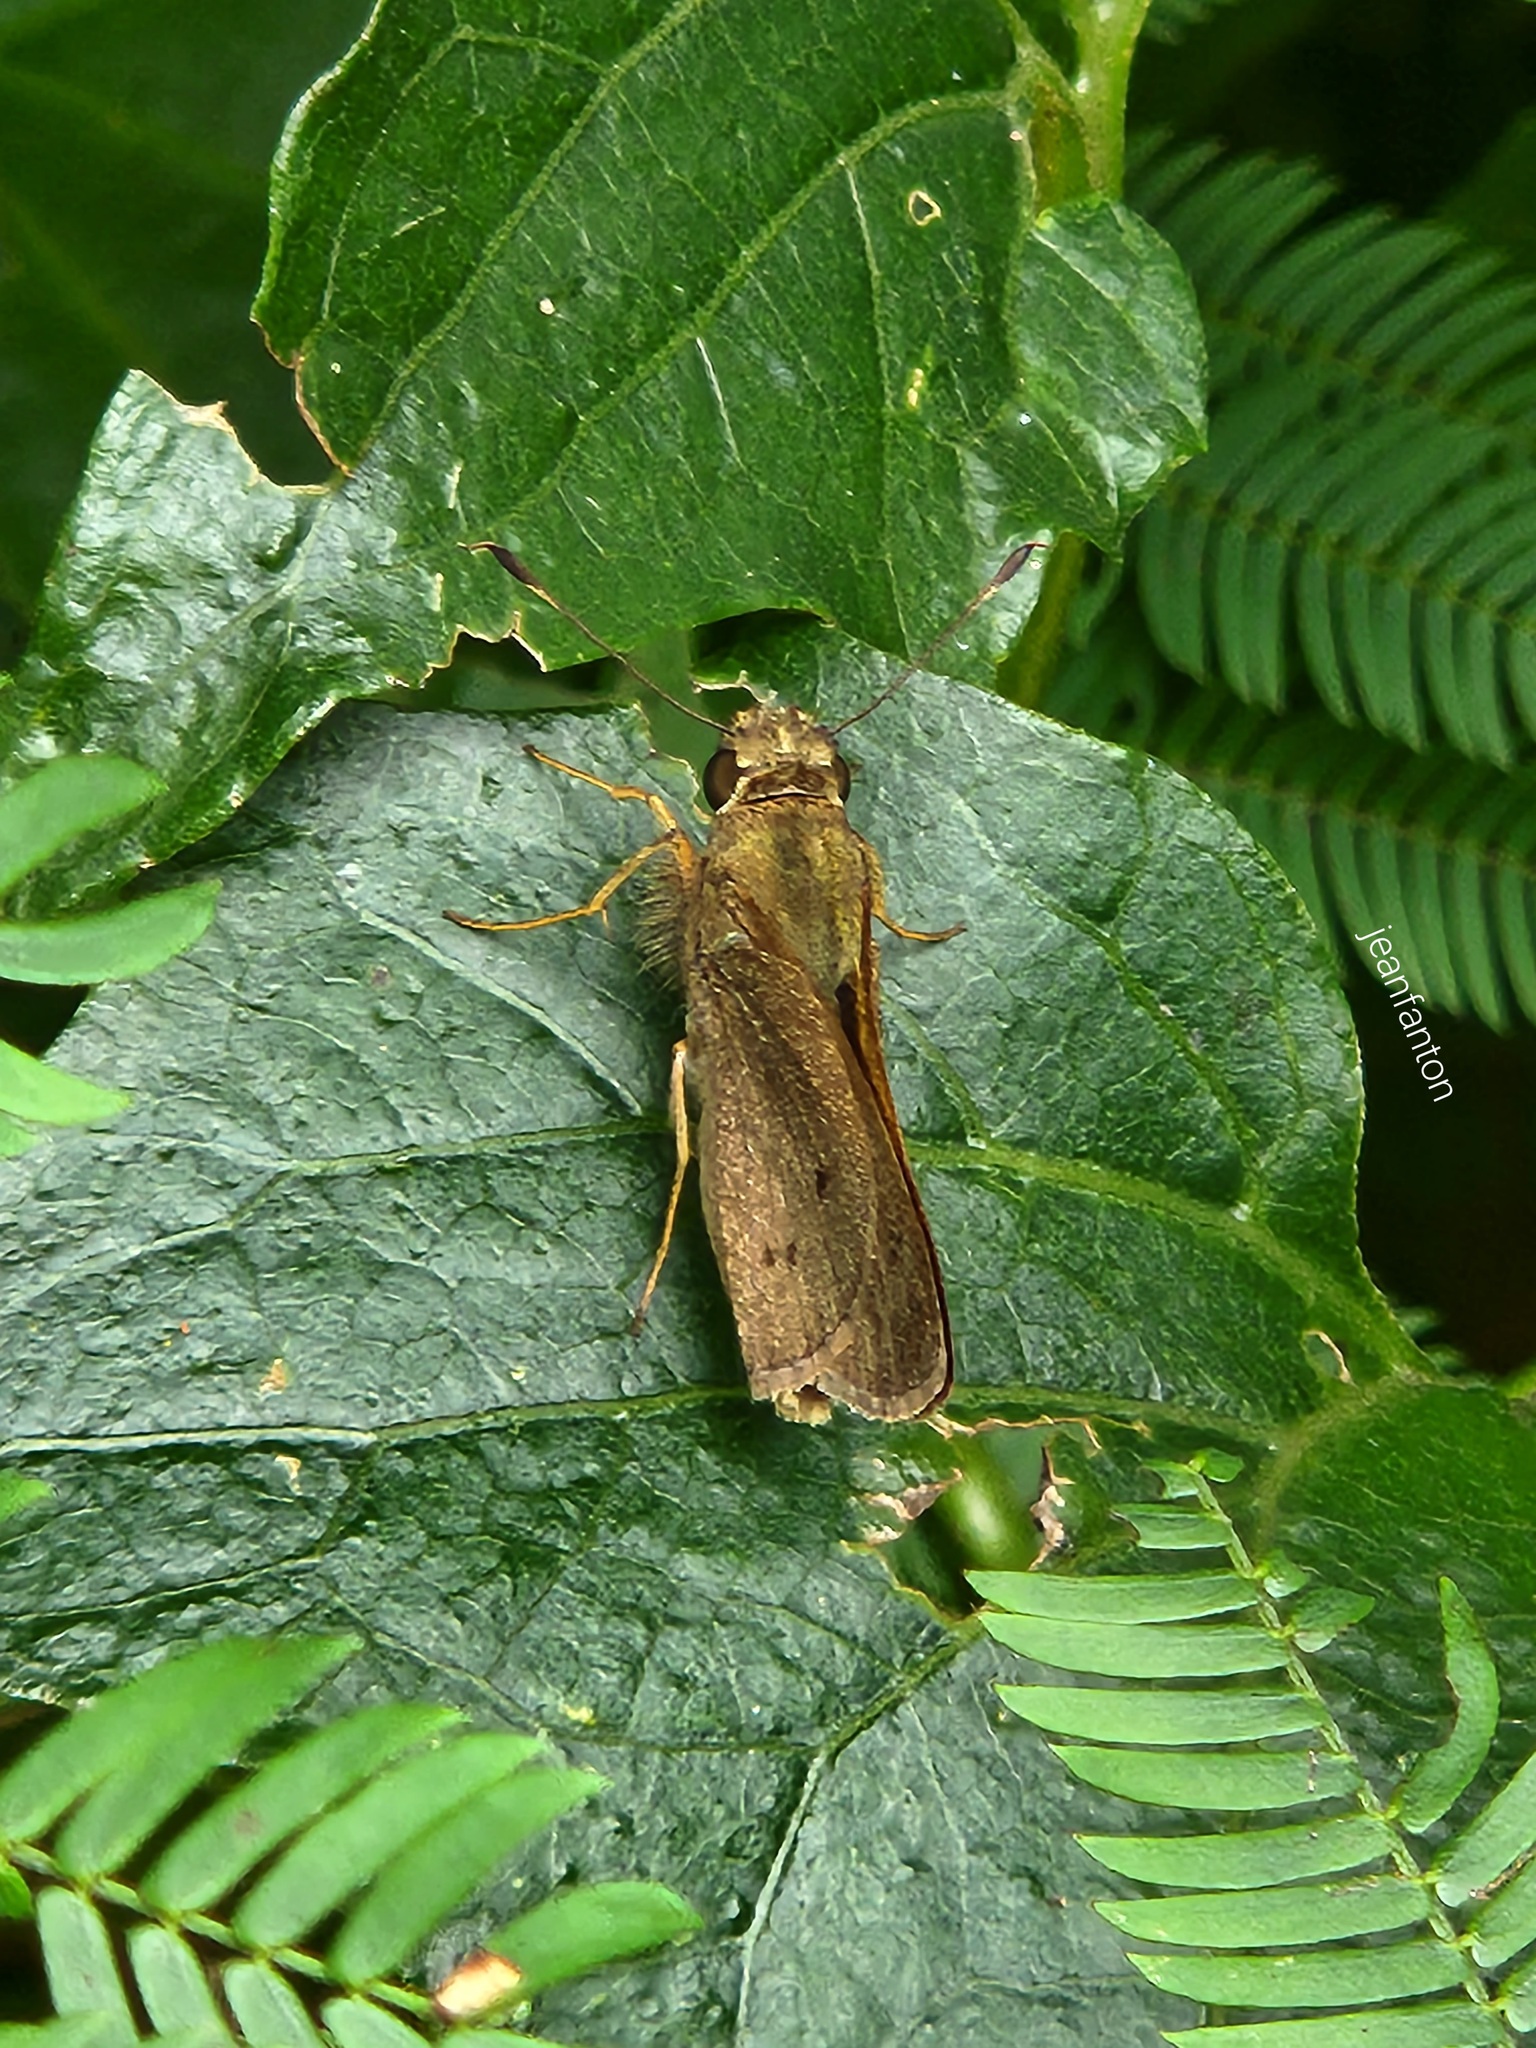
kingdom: Animalia
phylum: Arthropoda
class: Insecta
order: Lepidoptera
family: Hesperiidae
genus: Mucia
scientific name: Mucia zygia
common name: Black-dotted skipper
